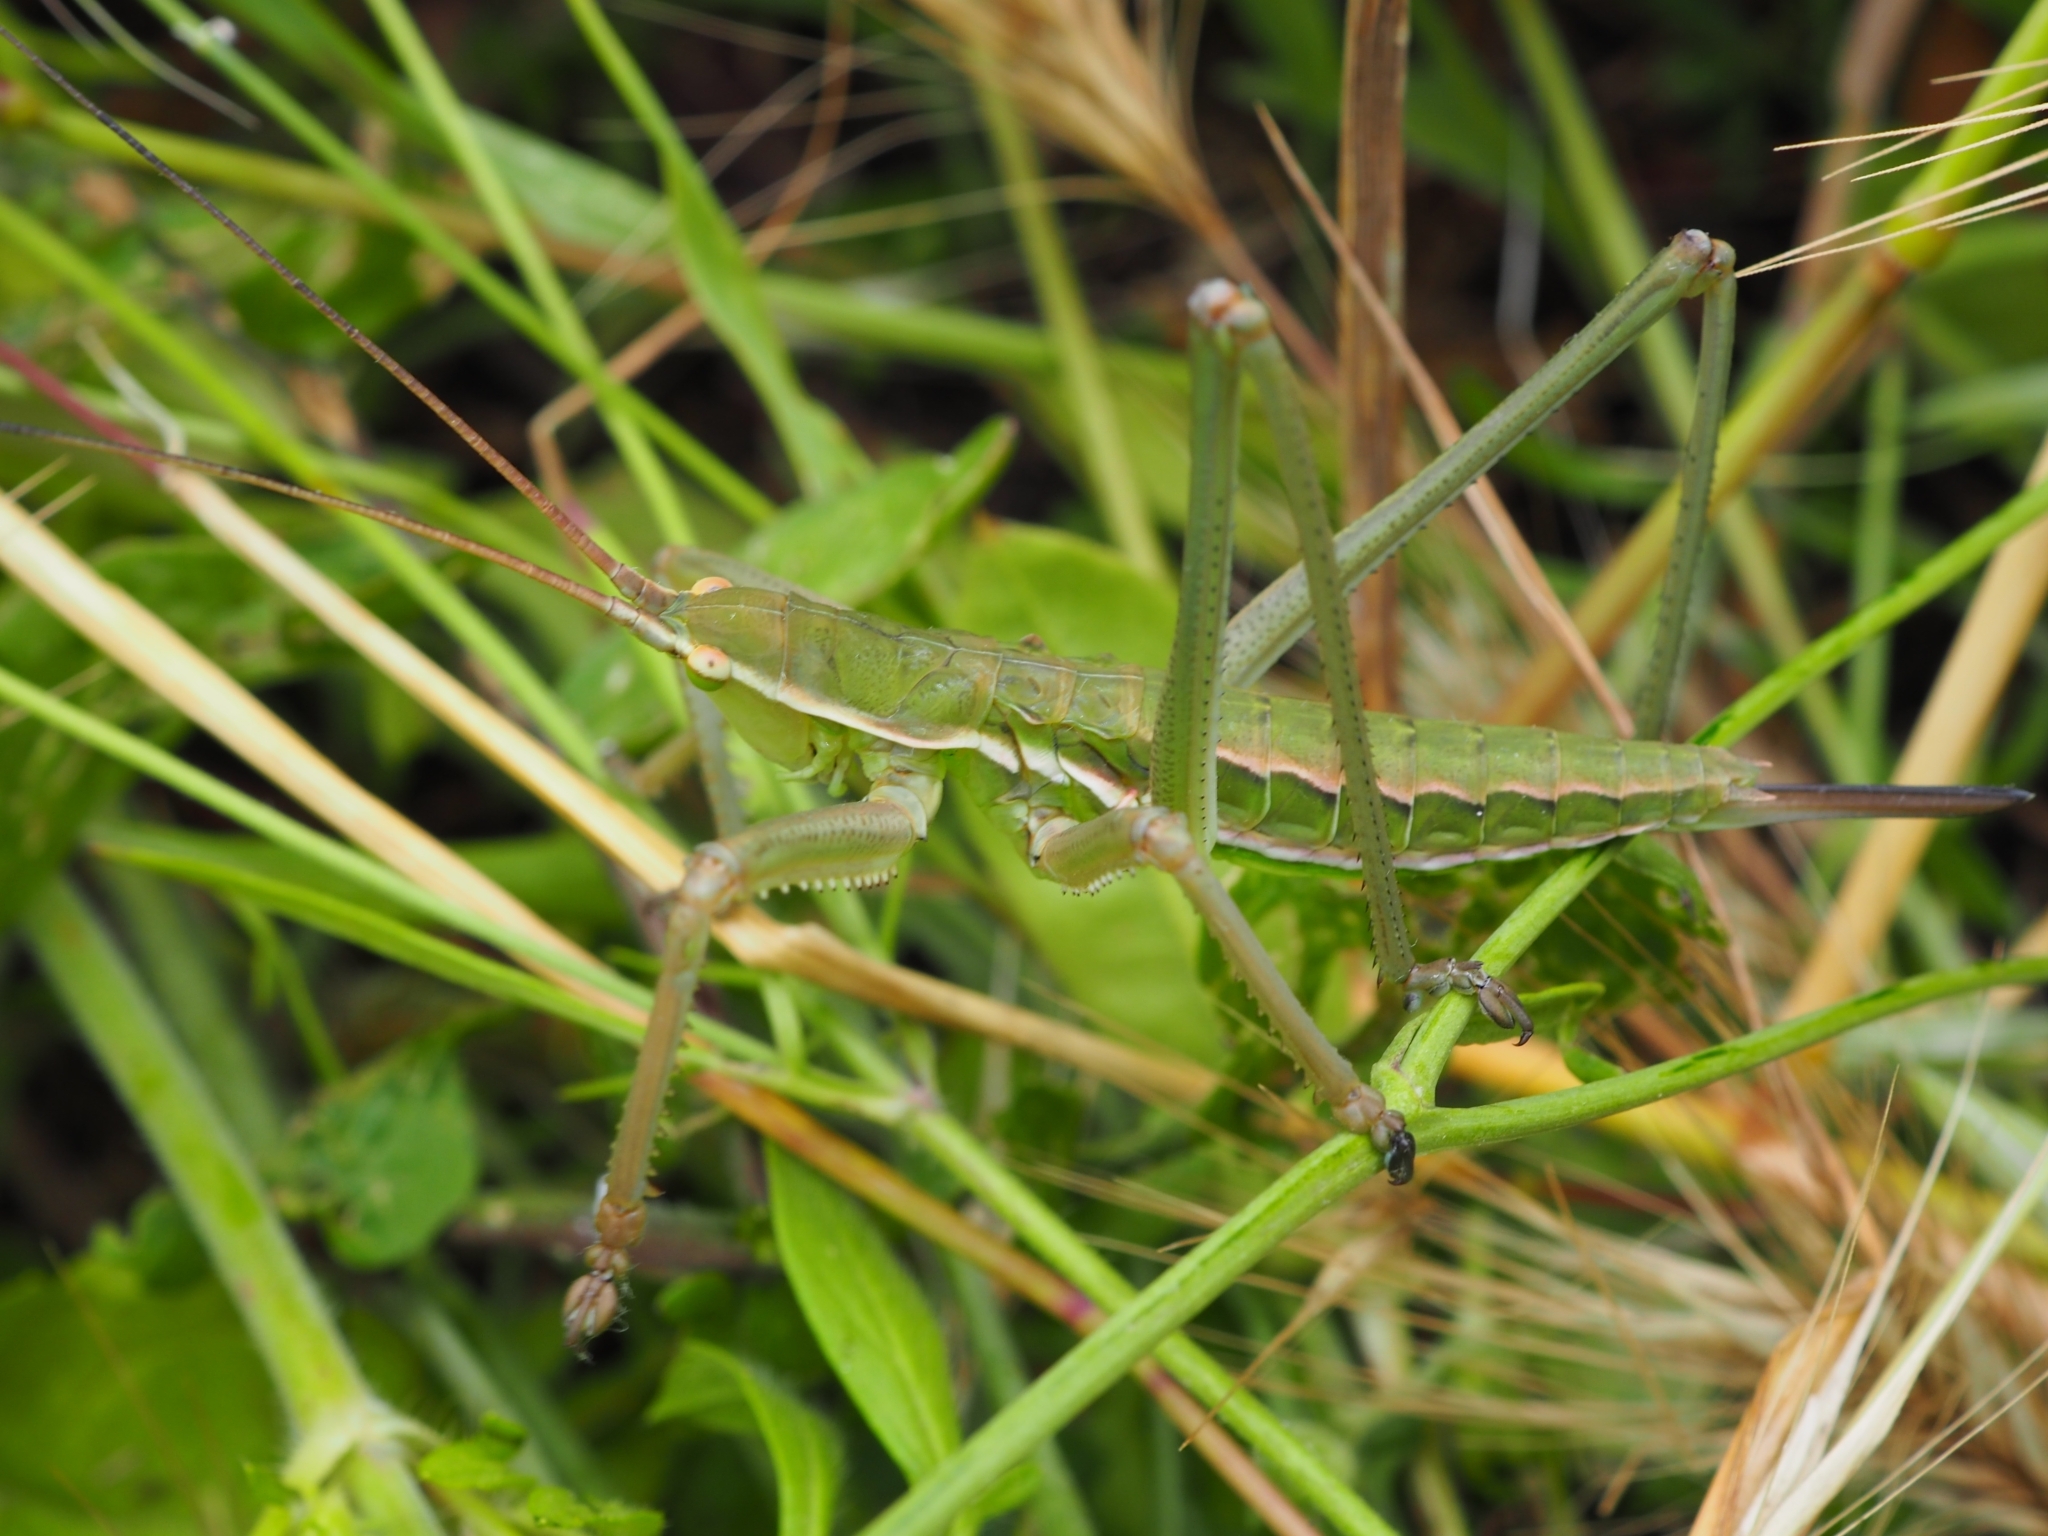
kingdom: Animalia
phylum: Arthropoda
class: Insecta
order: Orthoptera
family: Tettigoniidae
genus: Saga
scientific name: Saga hellenica
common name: Greek predatory bush-cricket
